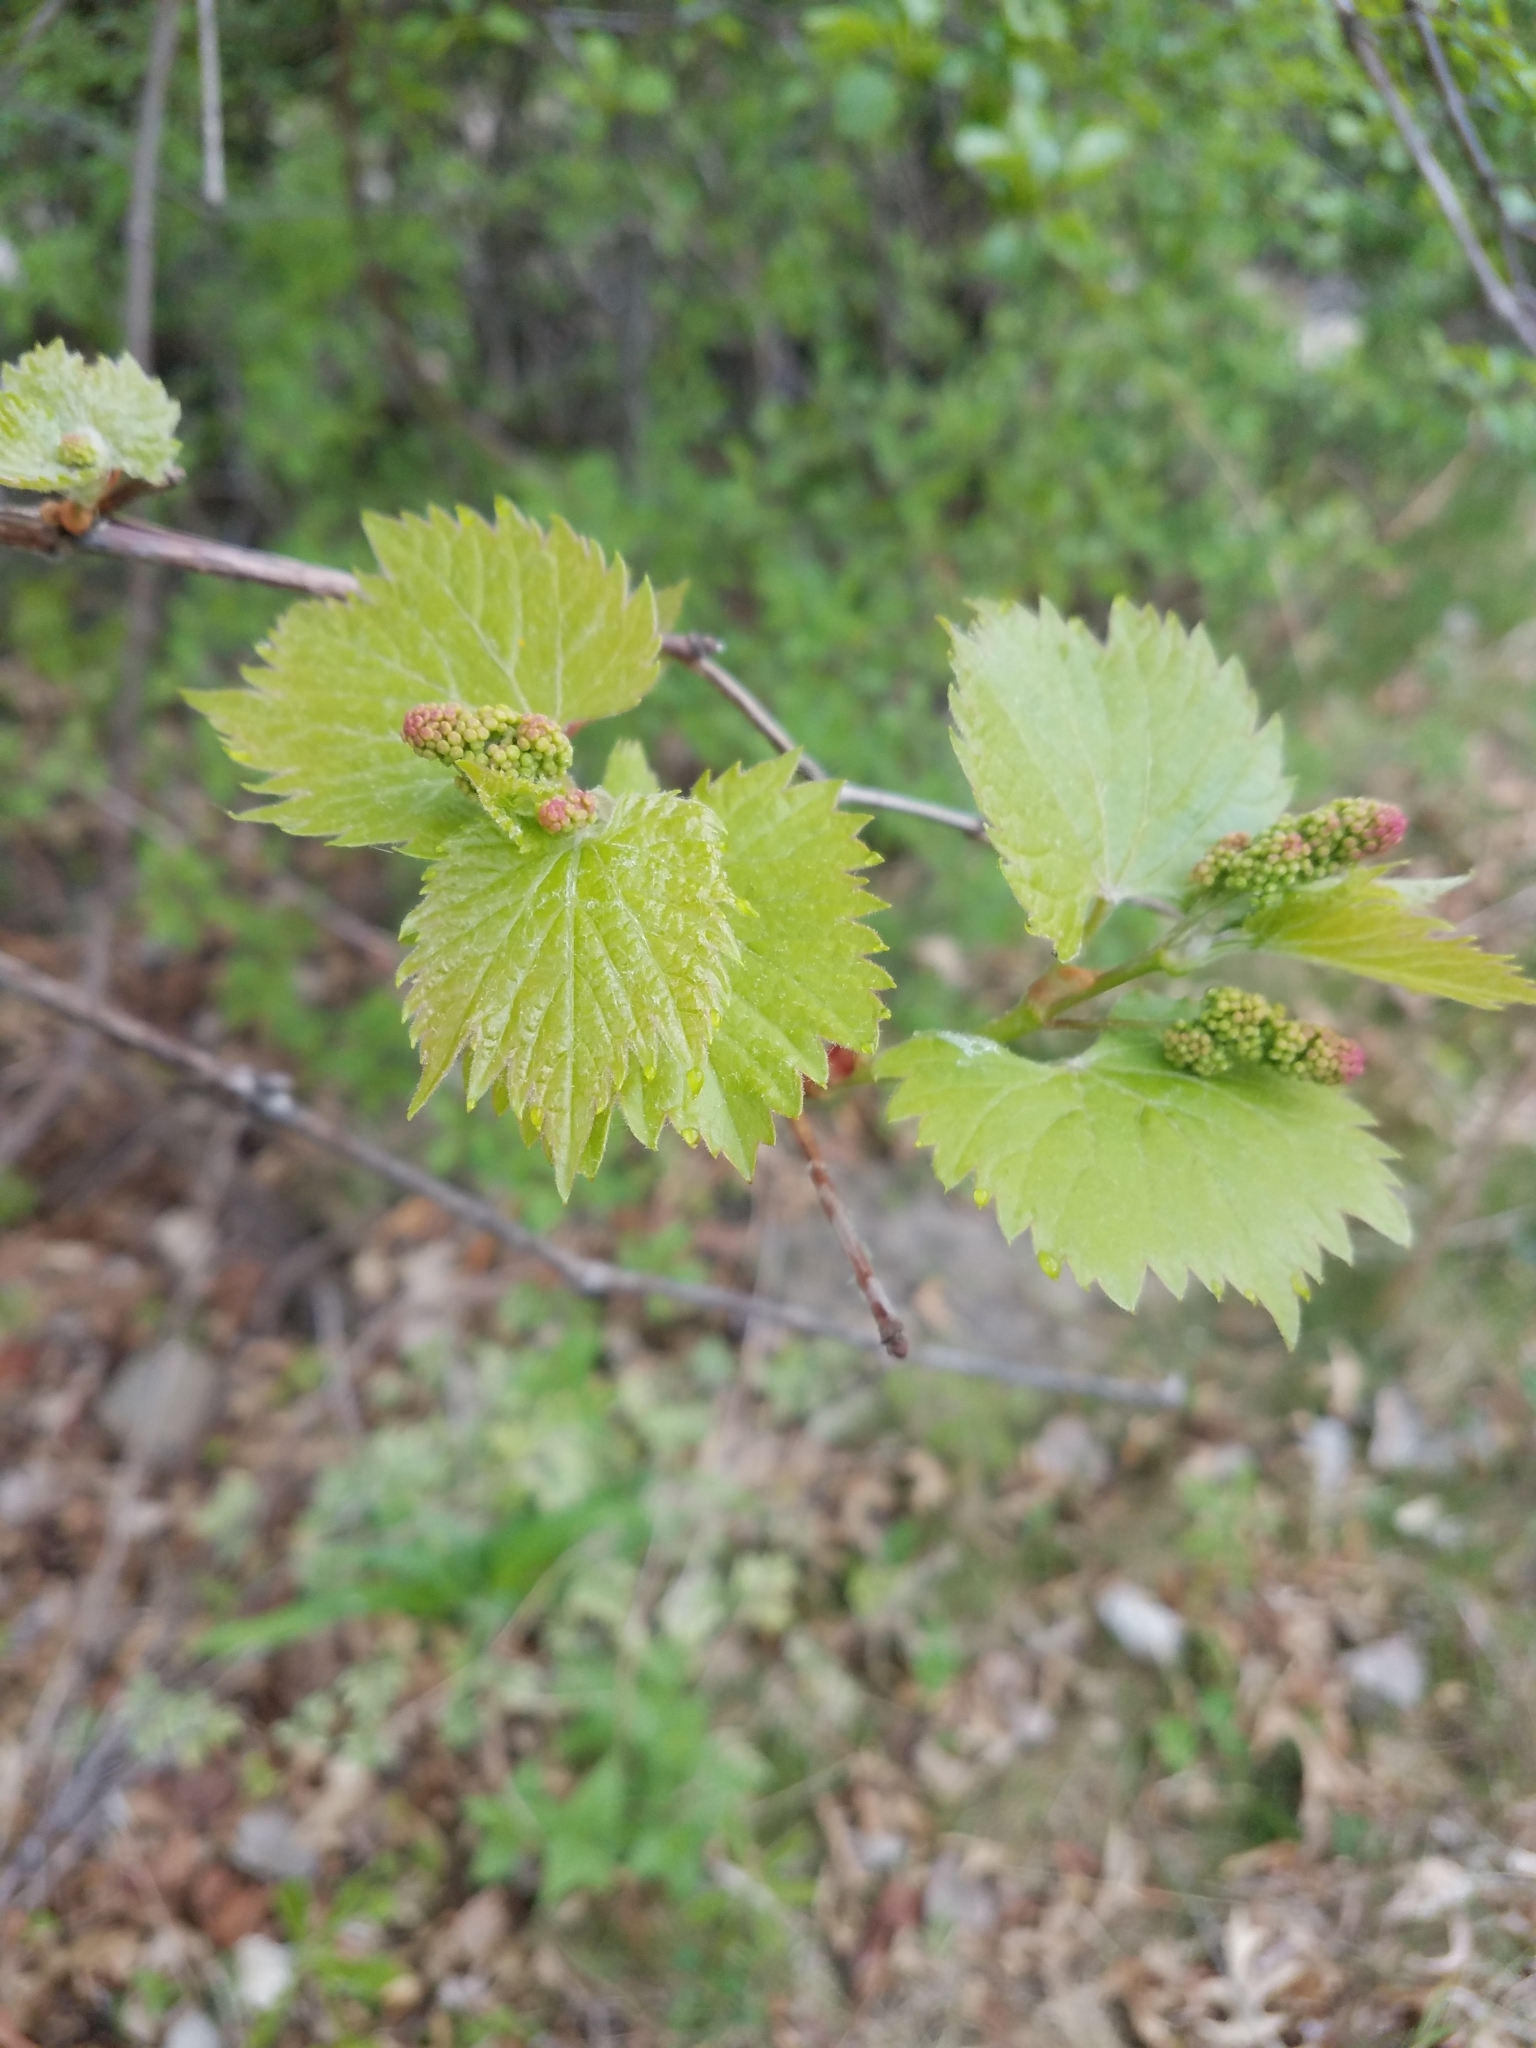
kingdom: Plantae
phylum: Tracheophyta
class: Magnoliopsida
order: Vitales
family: Vitaceae
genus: Vitis
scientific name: Vitis riparia
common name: Frost grape
